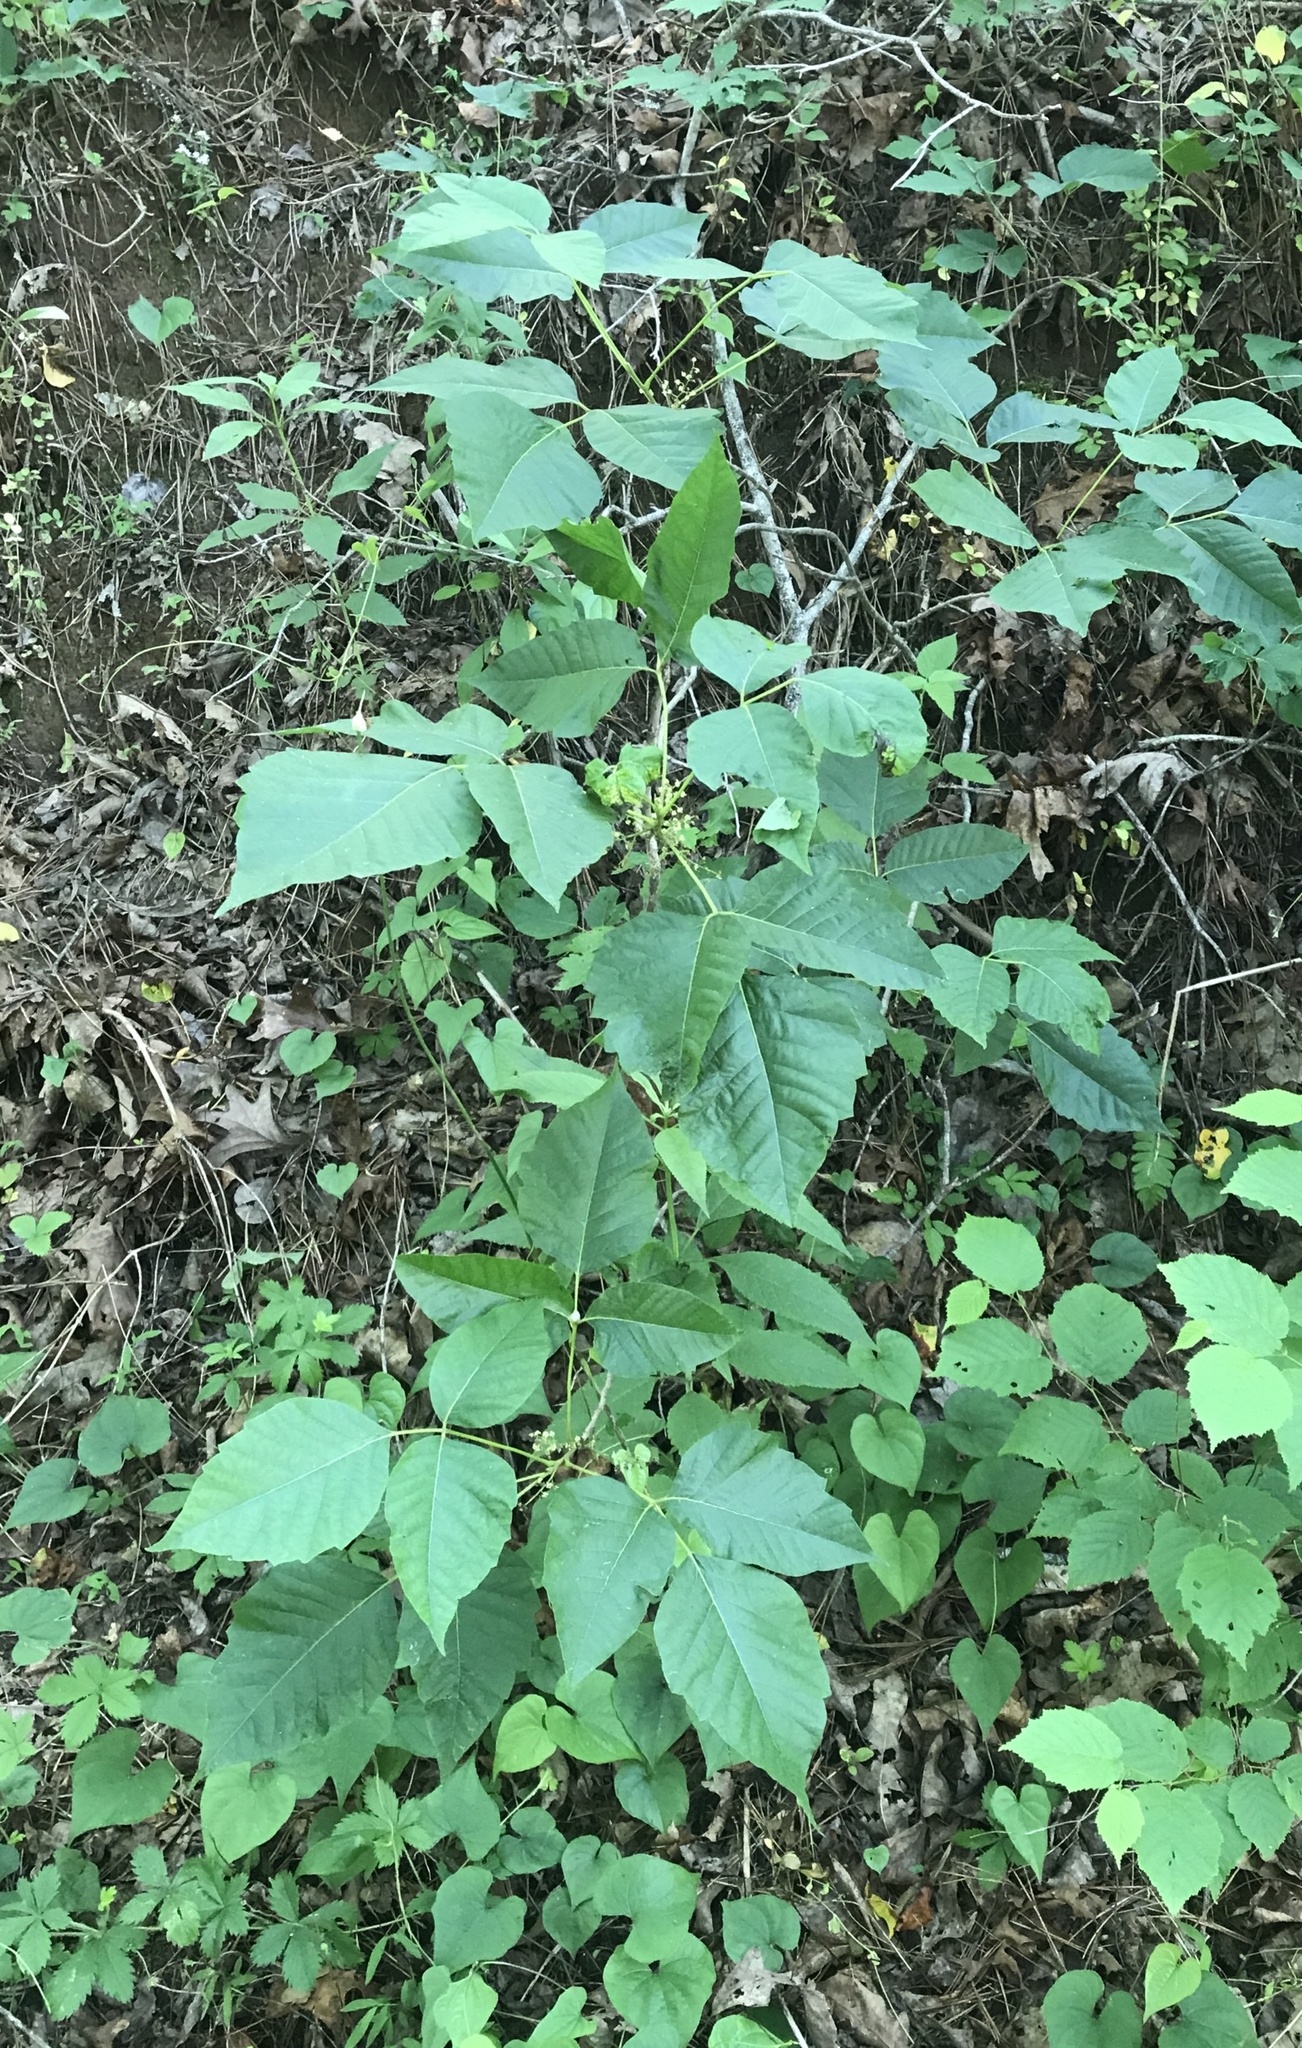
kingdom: Plantae
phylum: Tracheophyta
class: Magnoliopsida
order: Sapindales
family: Anacardiaceae
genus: Toxicodendron
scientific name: Toxicodendron radicans
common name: Poison ivy
